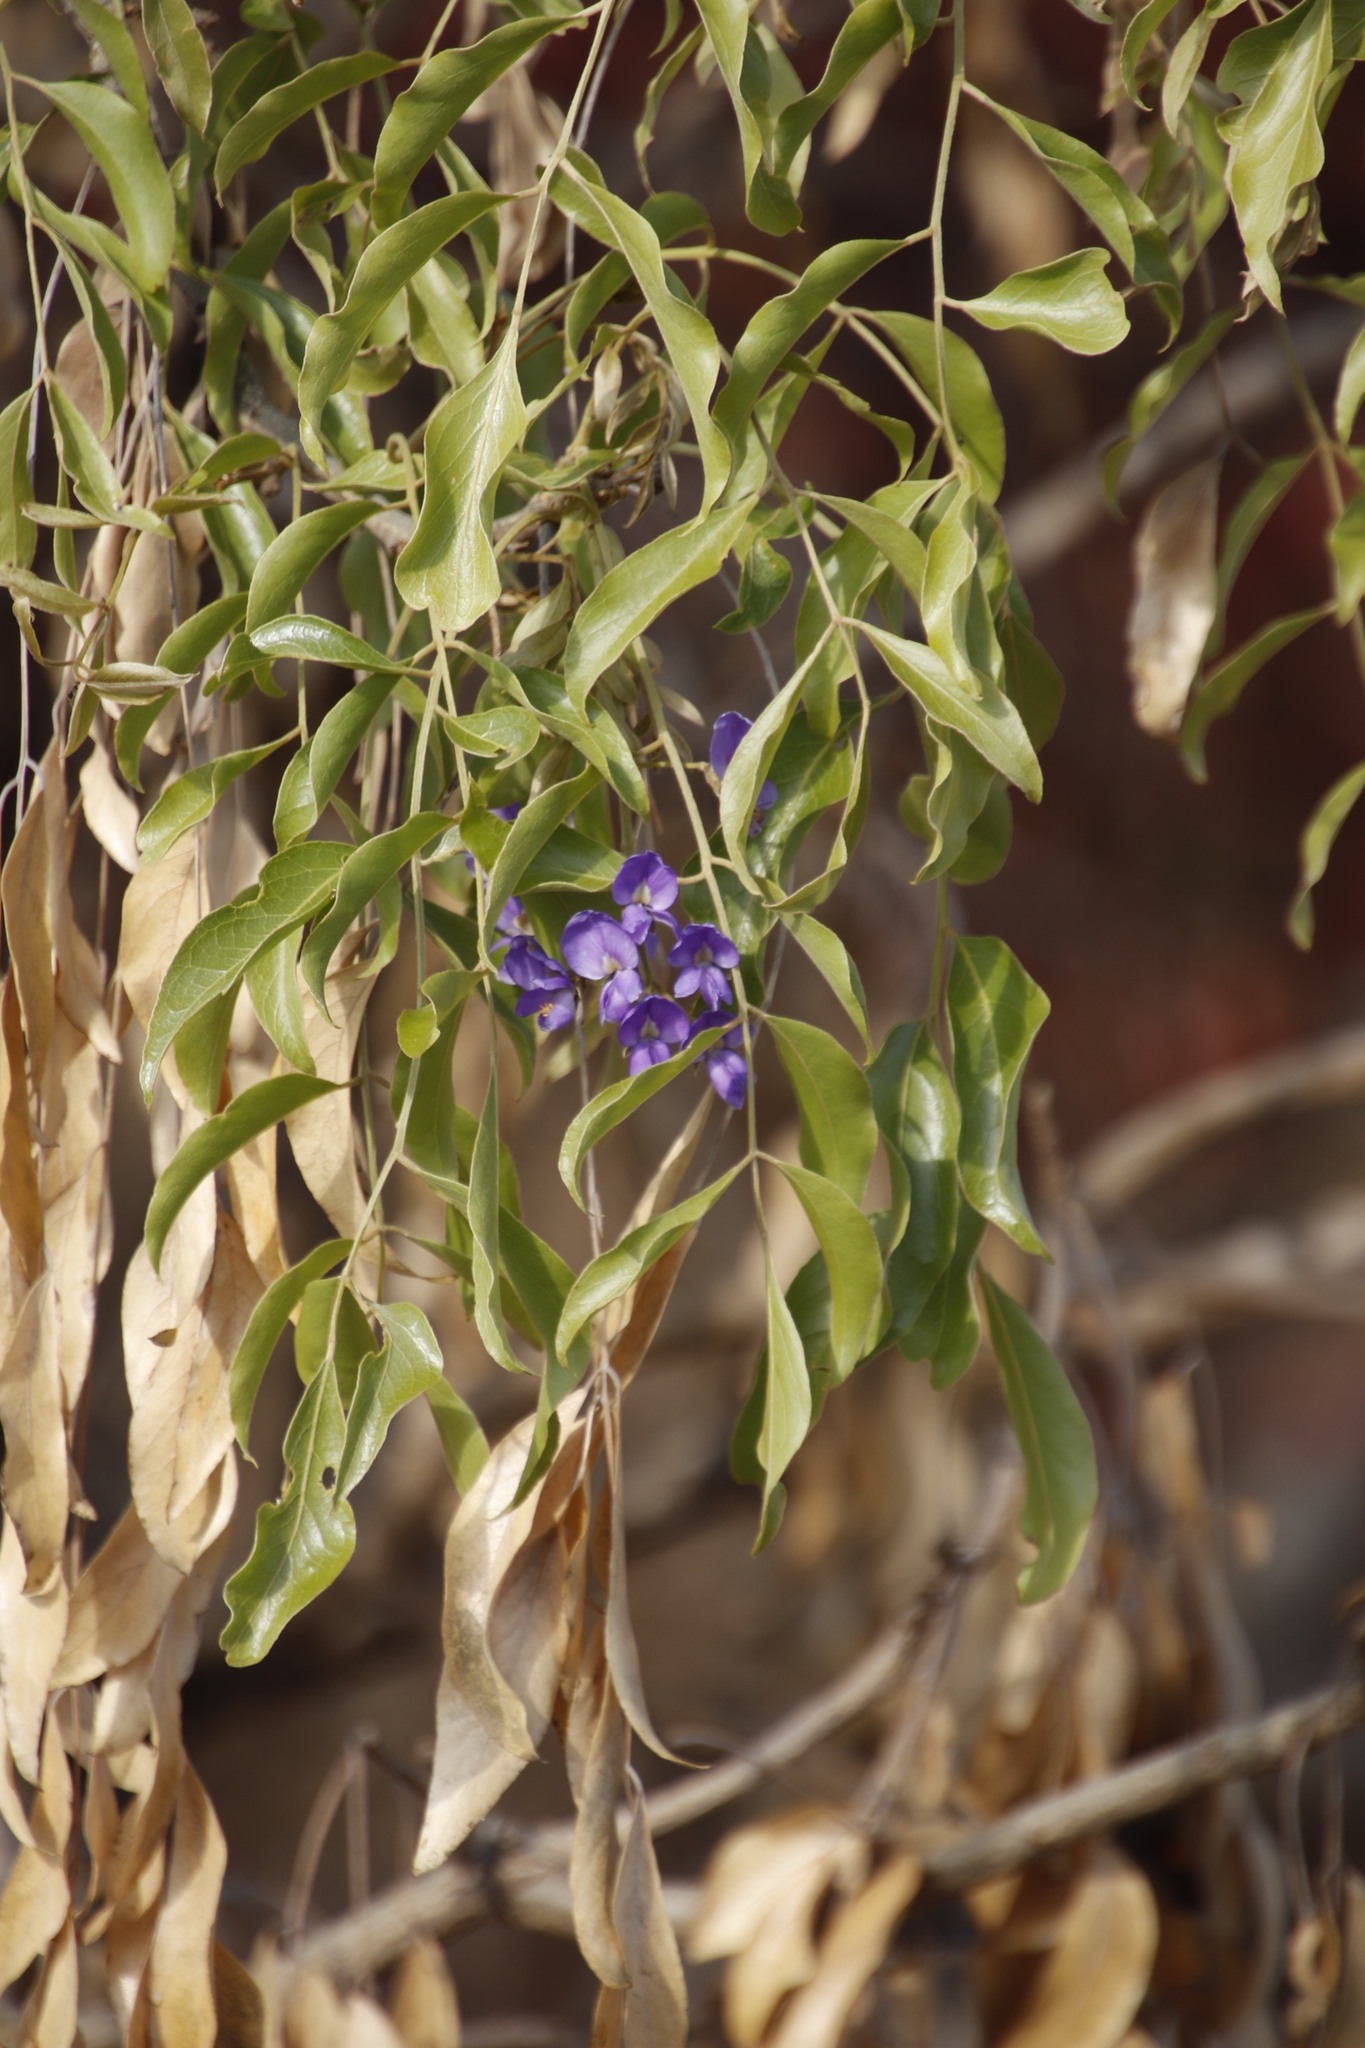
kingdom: Plantae
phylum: Tracheophyta
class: Magnoliopsida
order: Fabales
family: Fabaceae
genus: Bolusanthus
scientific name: Bolusanthus speciosus
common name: Tree wisteria
